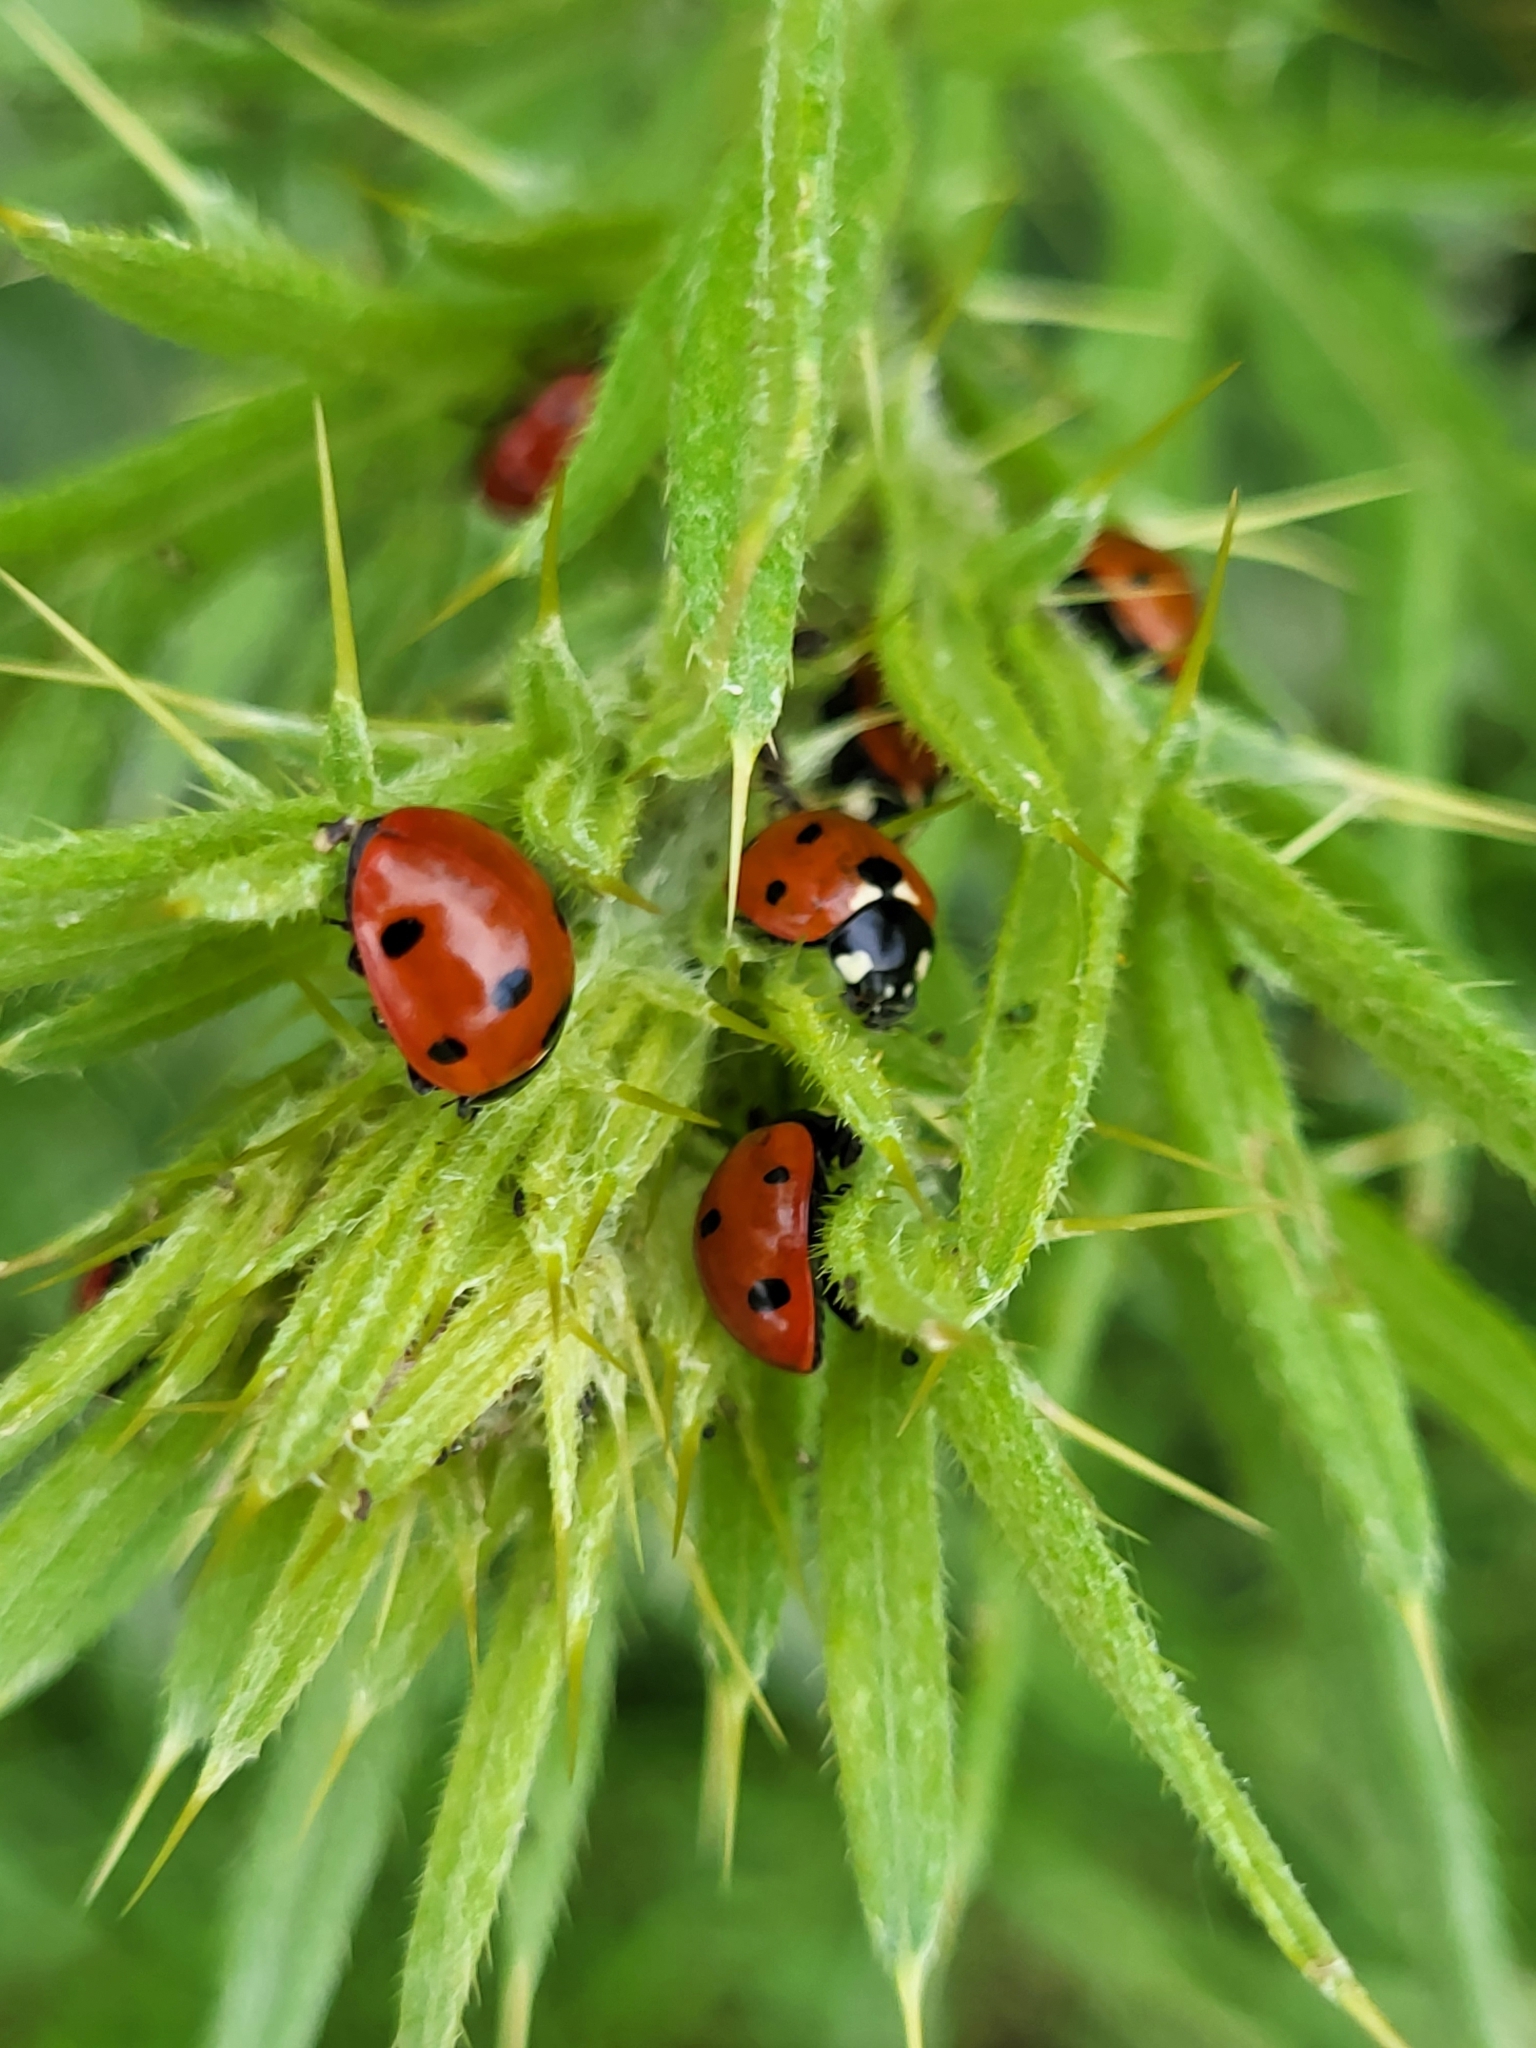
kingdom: Animalia
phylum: Arthropoda
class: Insecta
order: Coleoptera
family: Coccinellidae
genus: Coccinella
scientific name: Coccinella septempunctata
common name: Sevenspotted lady beetle
